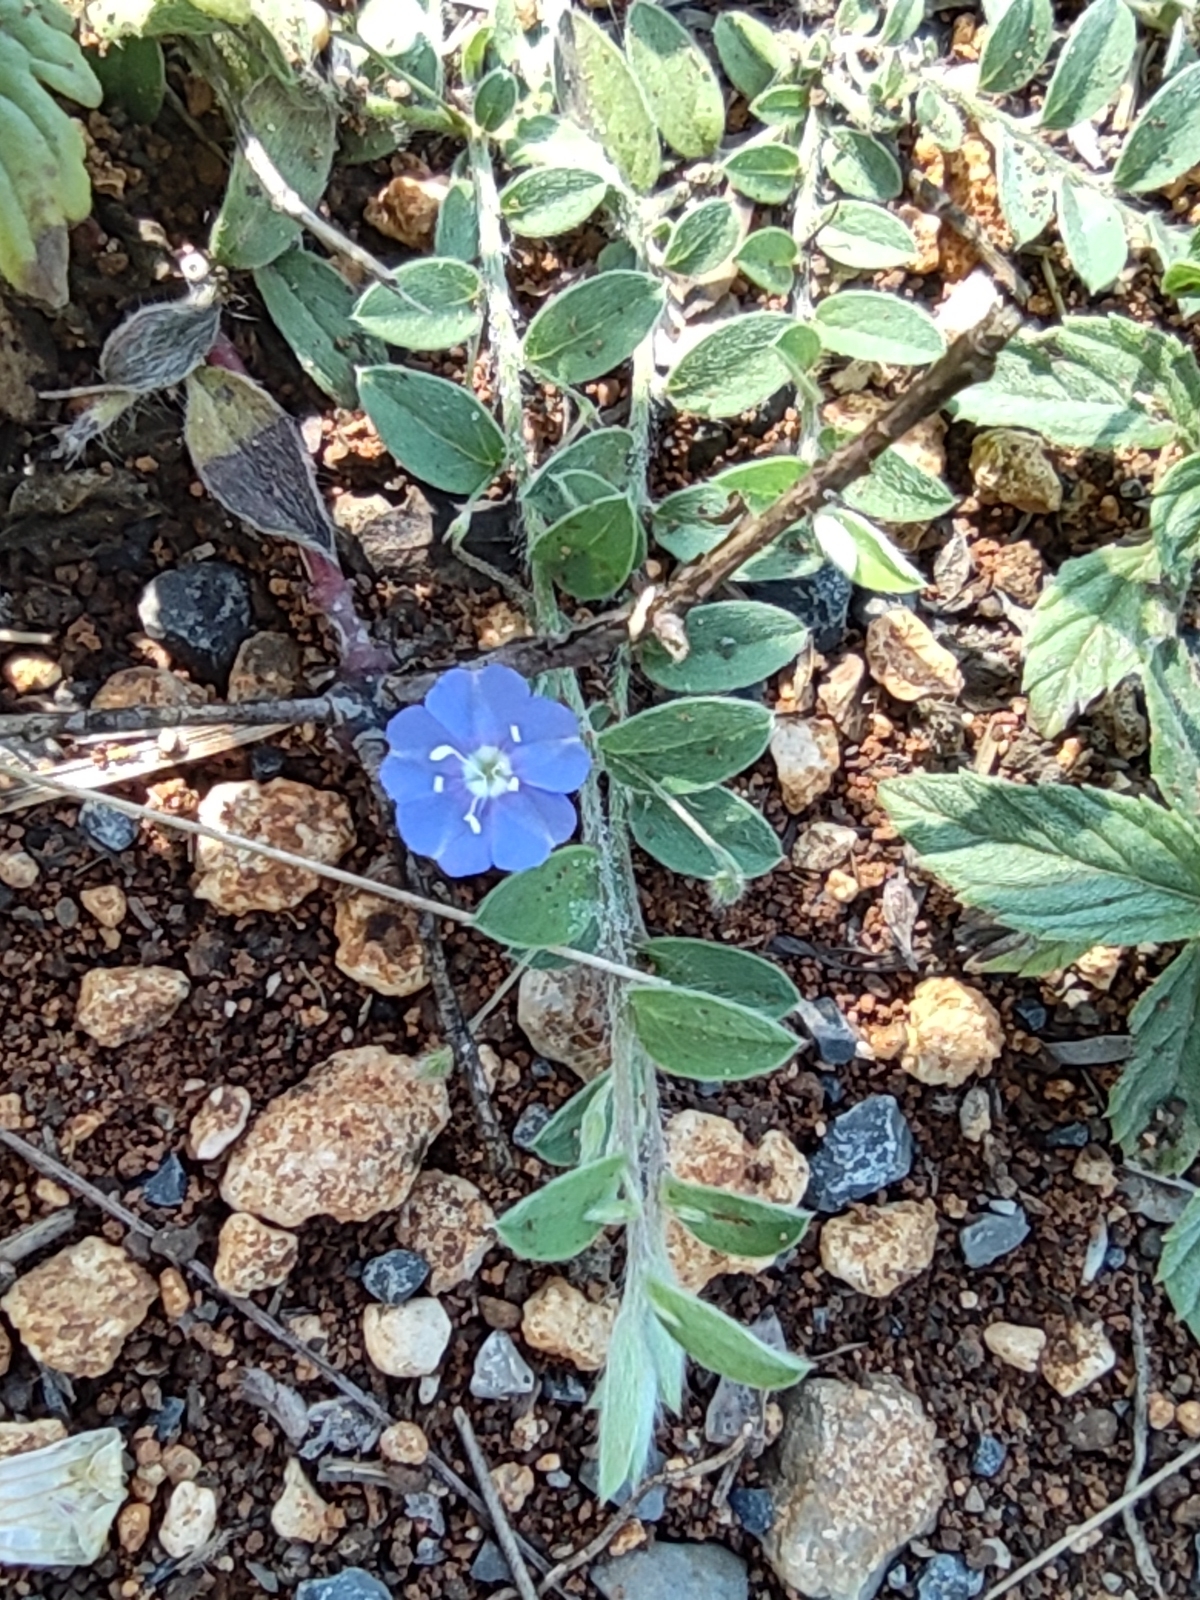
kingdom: Plantae
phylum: Tracheophyta
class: Magnoliopsida
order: Solanales
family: Convolvulaceae
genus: Evolvulus
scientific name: Evolvulus alsinoides
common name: Slender dwarf morning-glory
